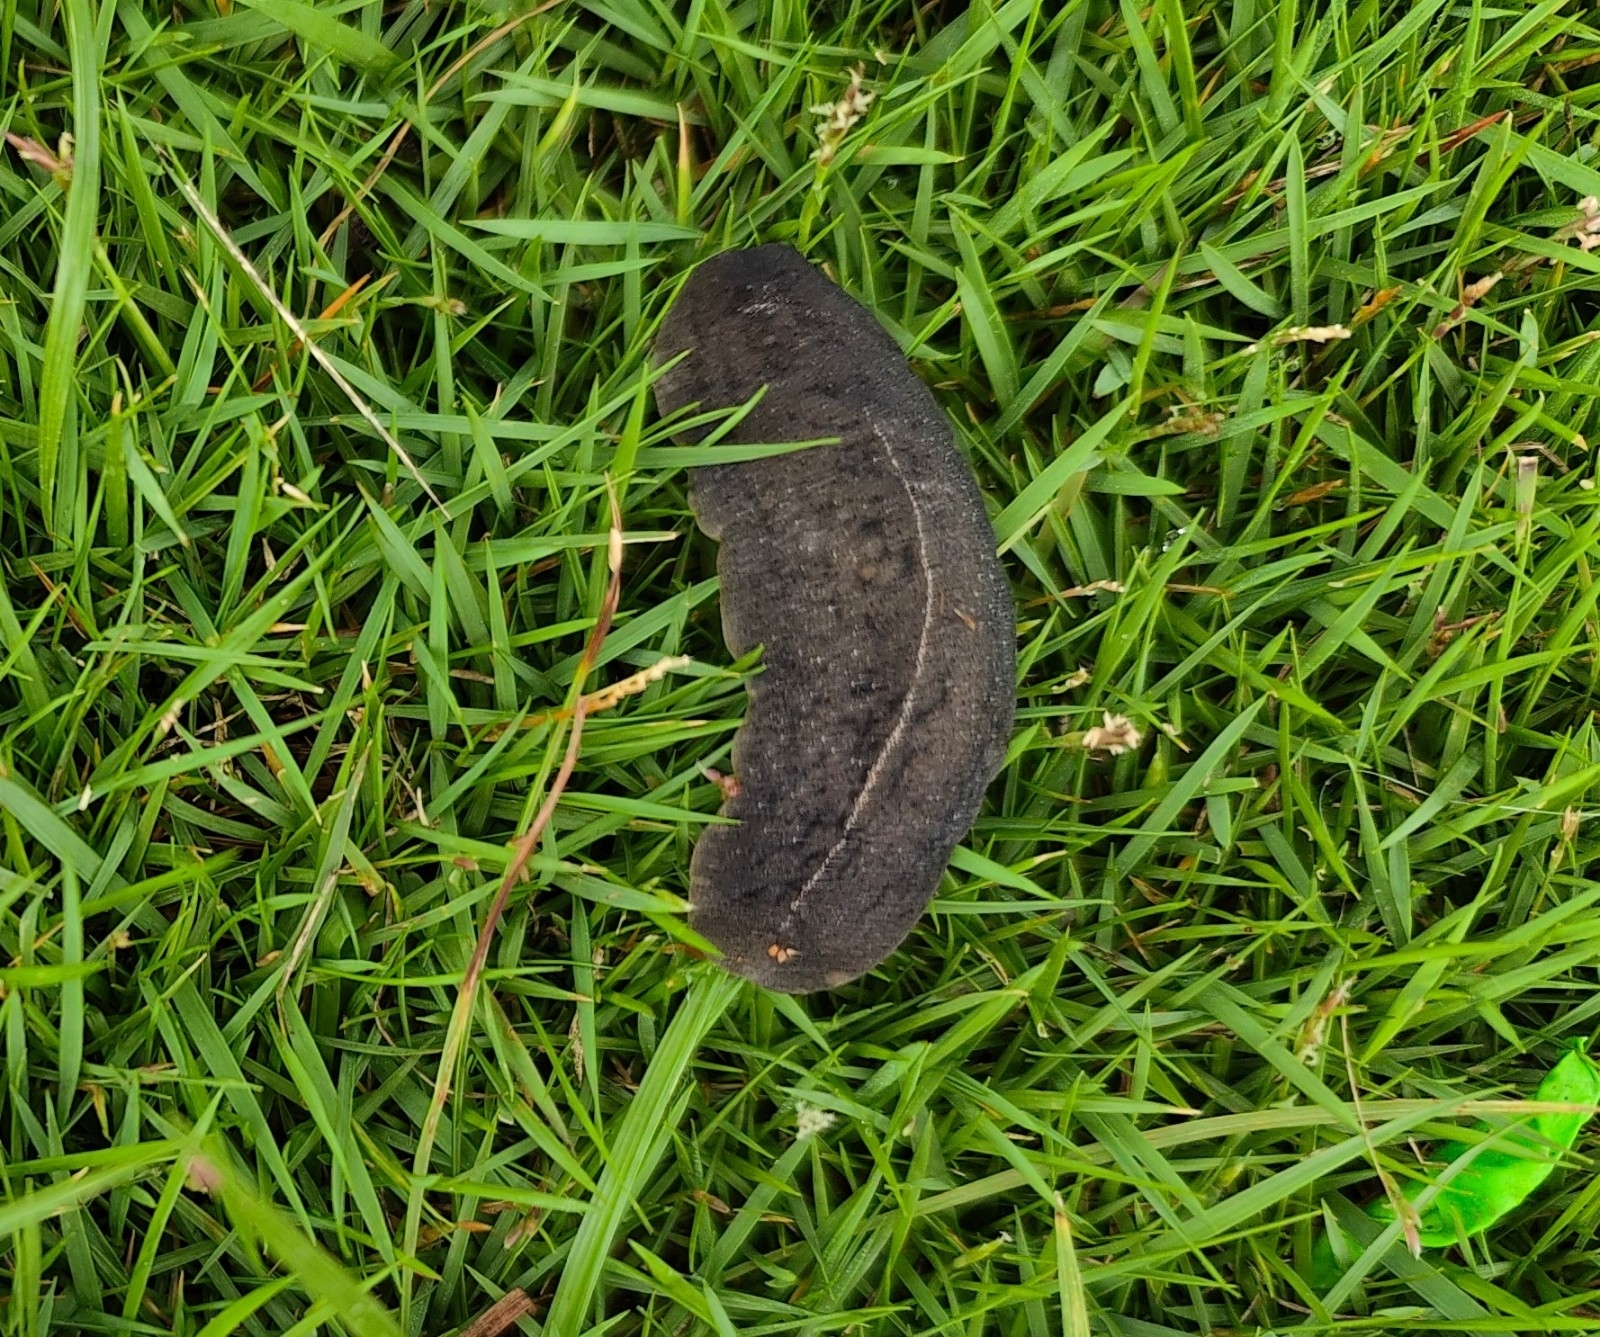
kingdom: Animalia
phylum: Mollusca
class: Gastropoda
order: Systellommatophora
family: Veronicellidae
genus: Laevicaulis
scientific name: Laevicaulis alte
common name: Tropical leatherleaf
